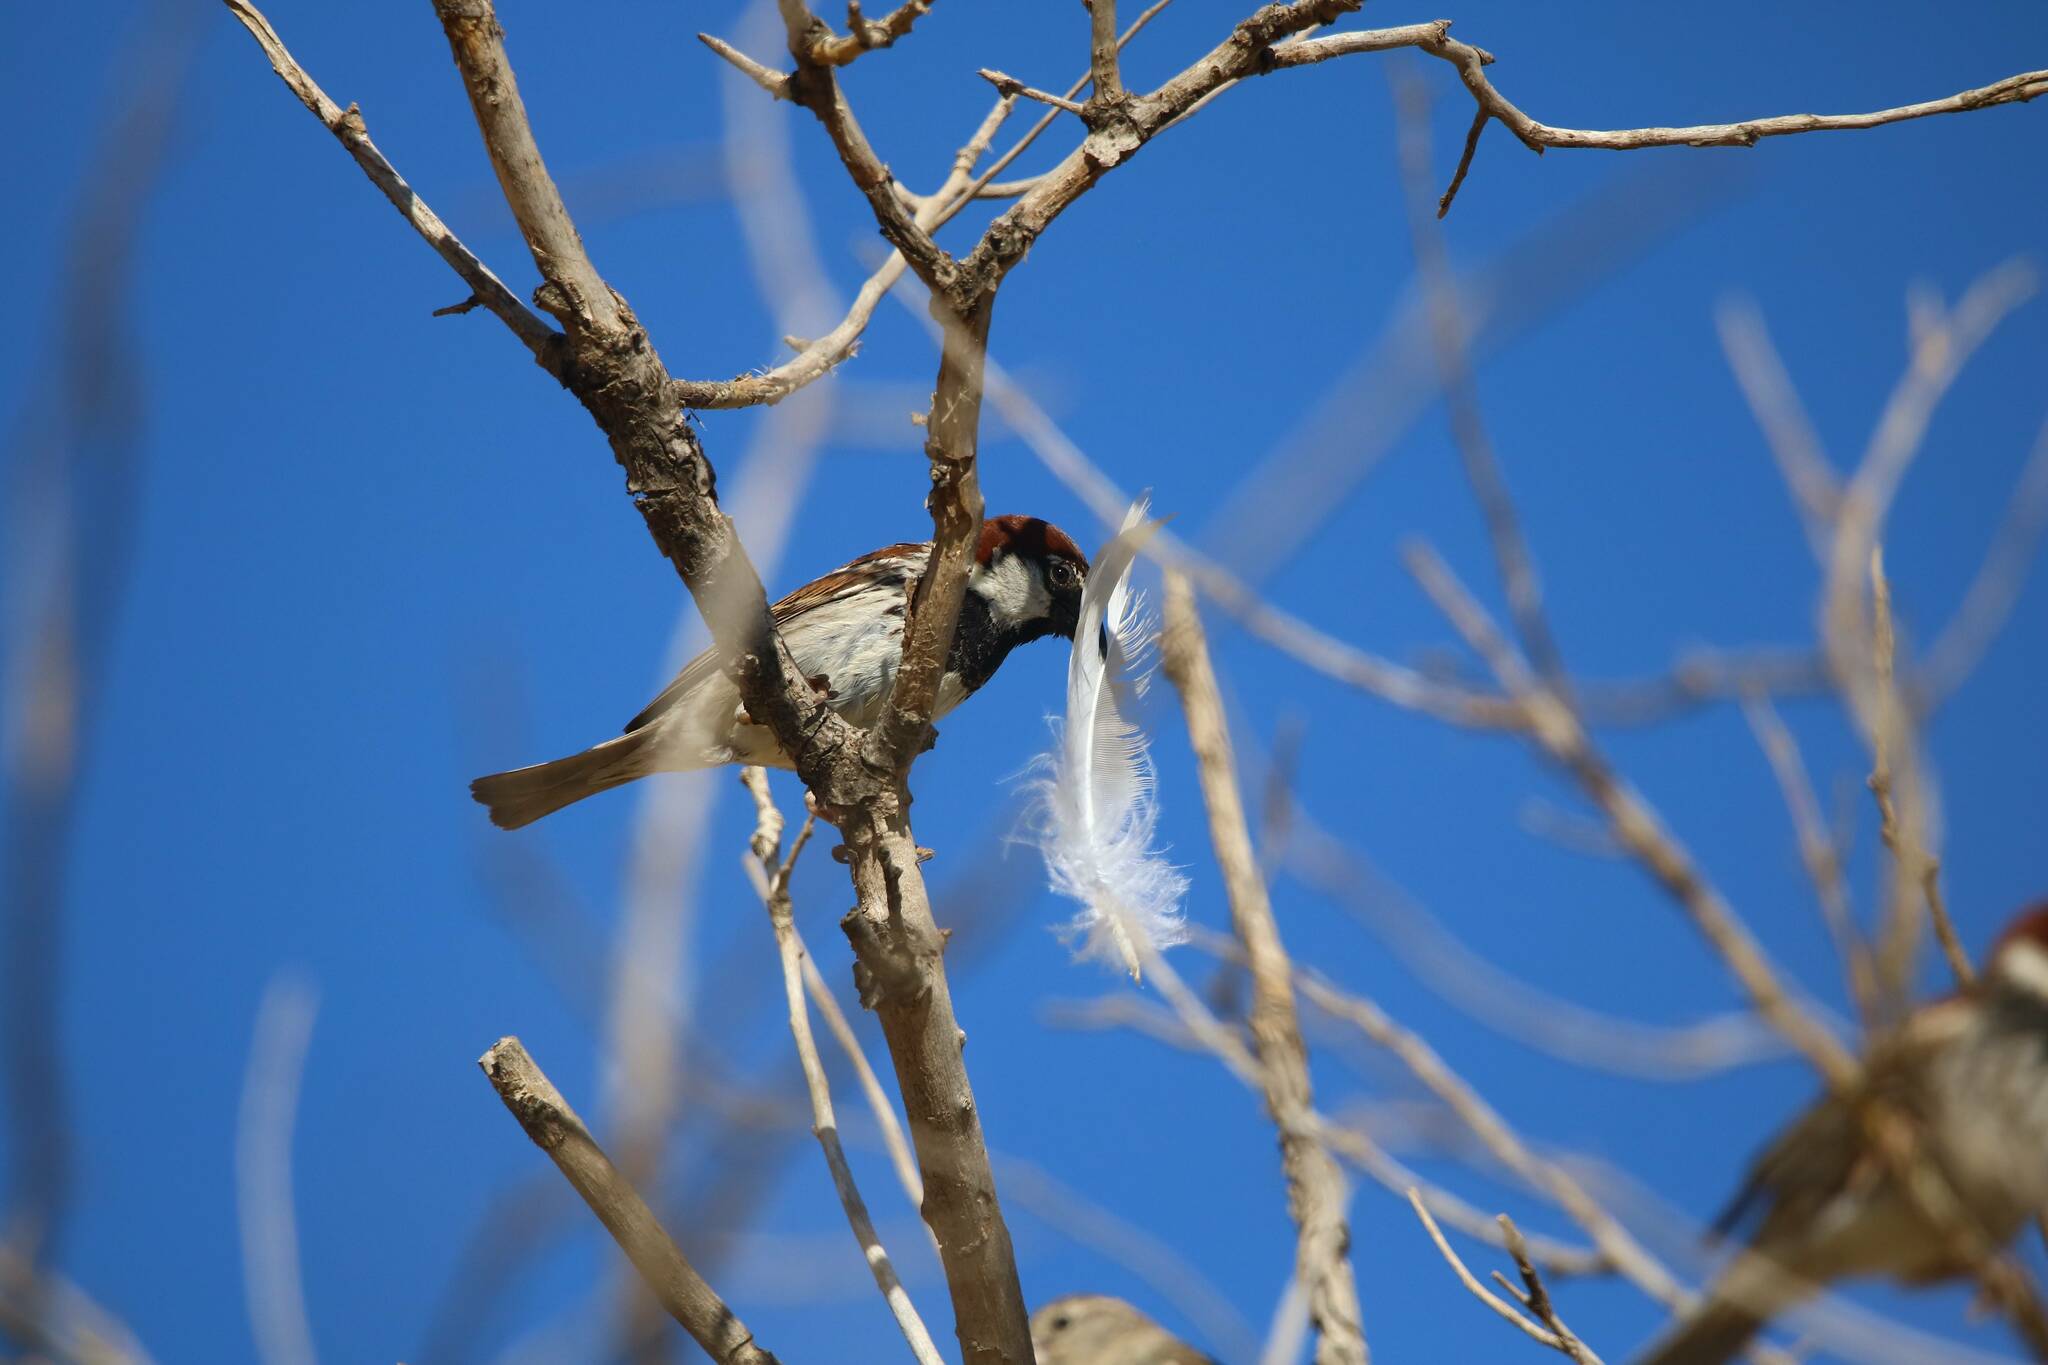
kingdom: Animalia
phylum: Chordata
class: Aves
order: Passeriformes
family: Passeridae
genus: Passer
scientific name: Passer hispaniolensis
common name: Spanish sparrow
